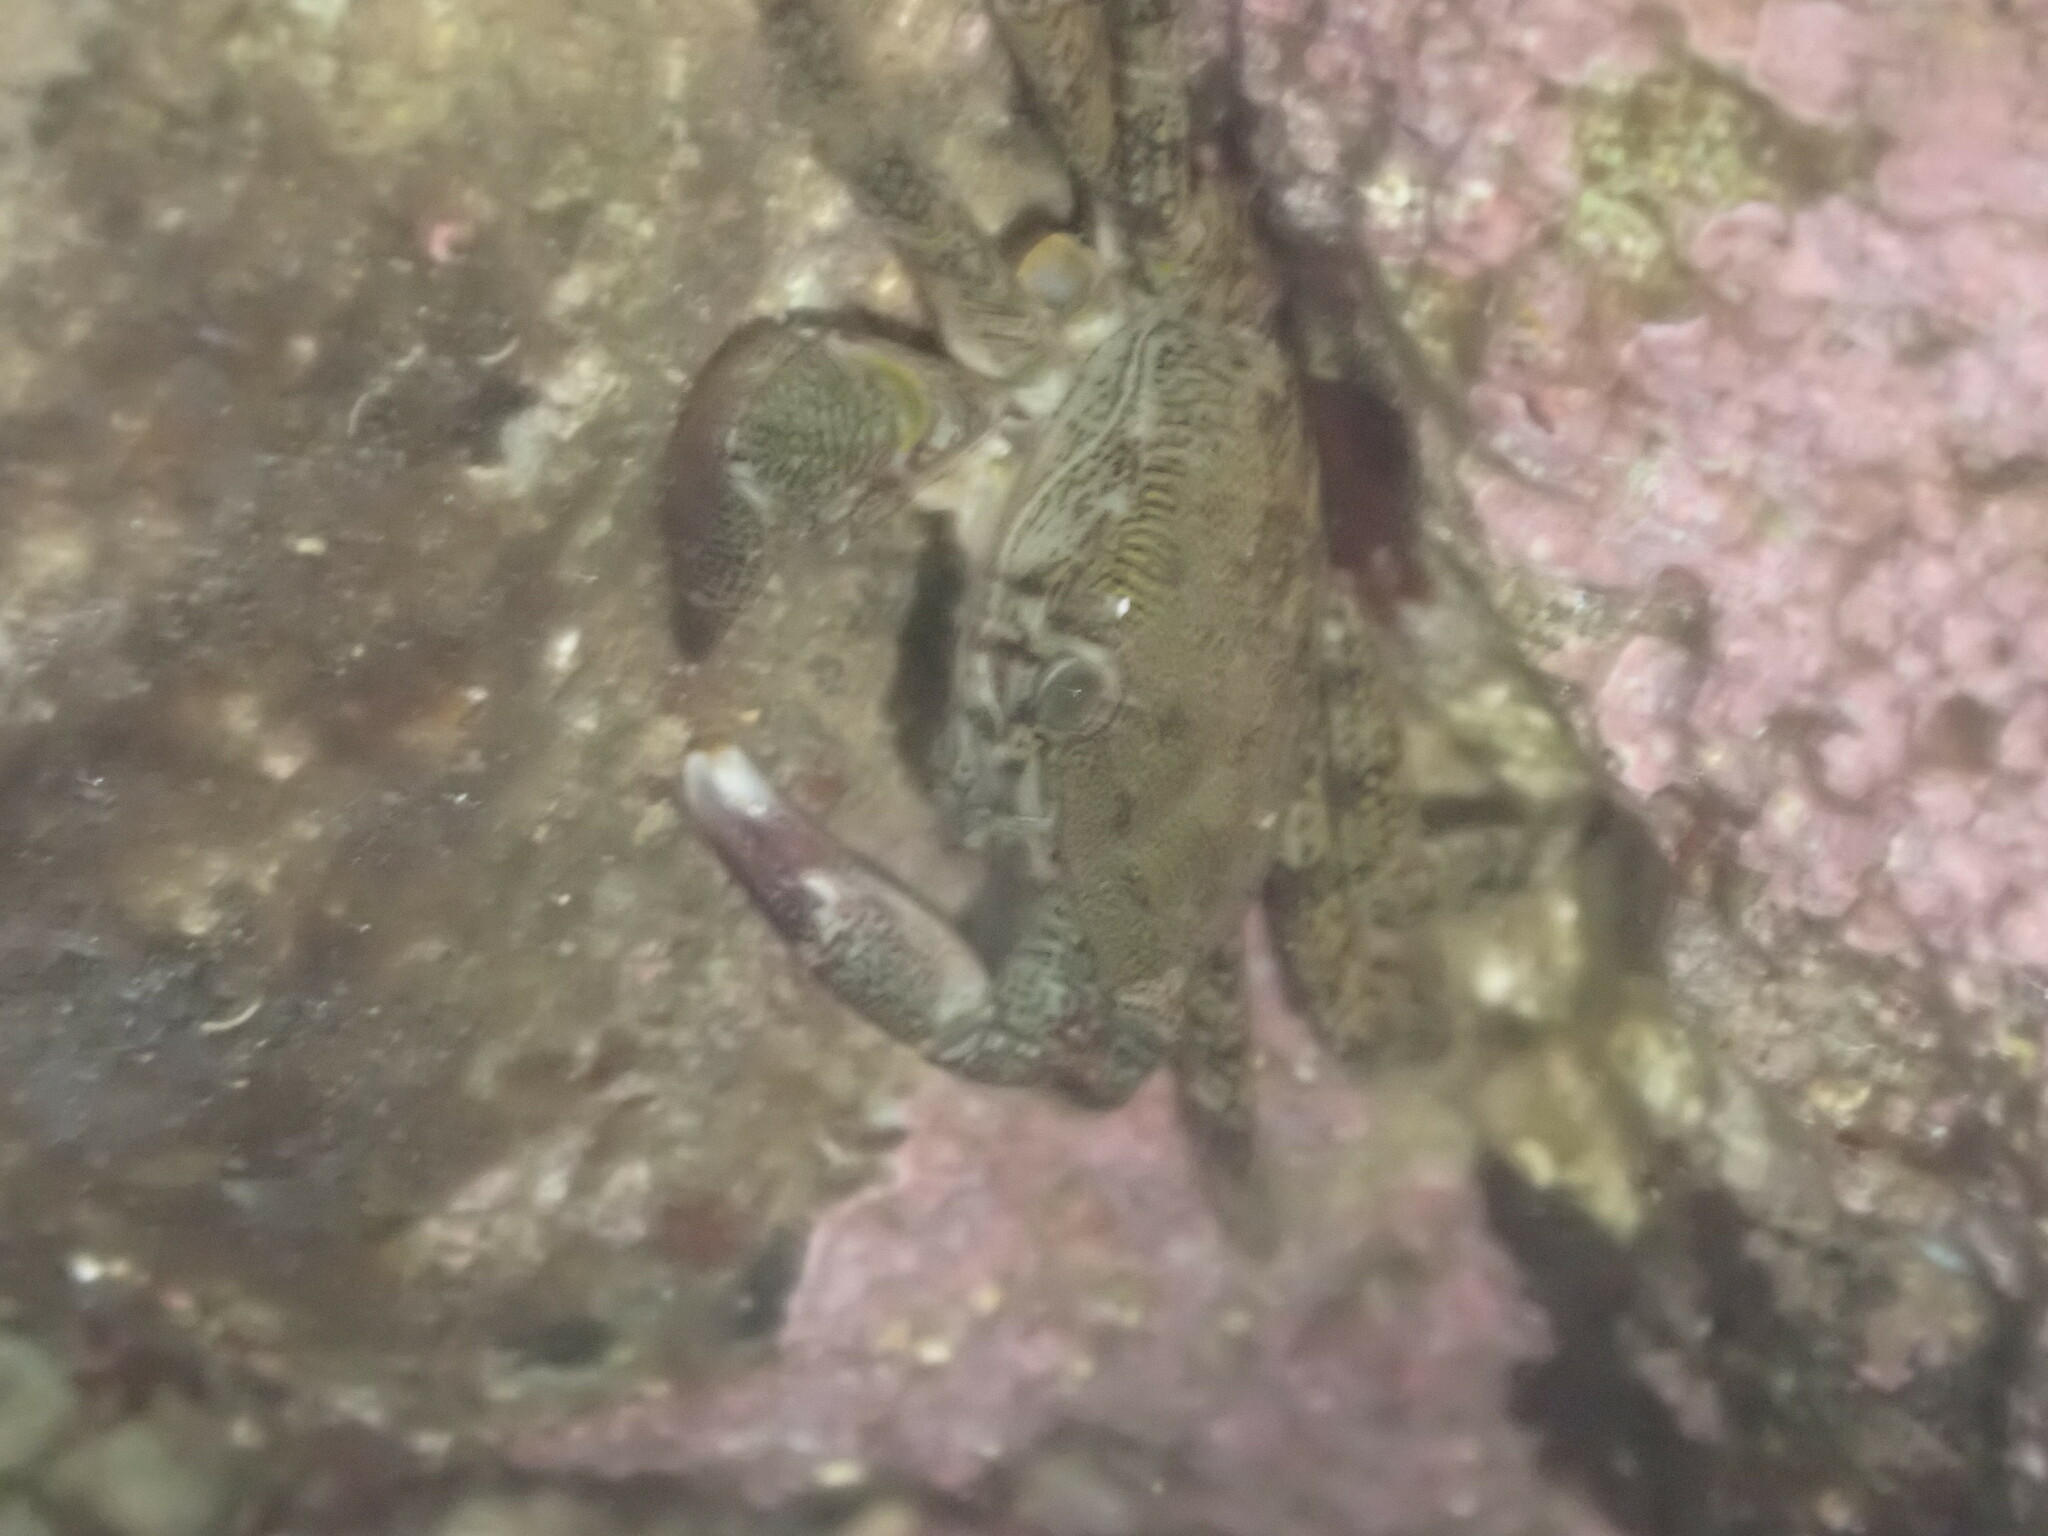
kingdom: Animalia
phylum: Arthropoda
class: Malacostraca
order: Decapoda
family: Grapsidae
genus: Pachygrapsus
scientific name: Pachygrapsus marmoratus
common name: Marbled rock crab
